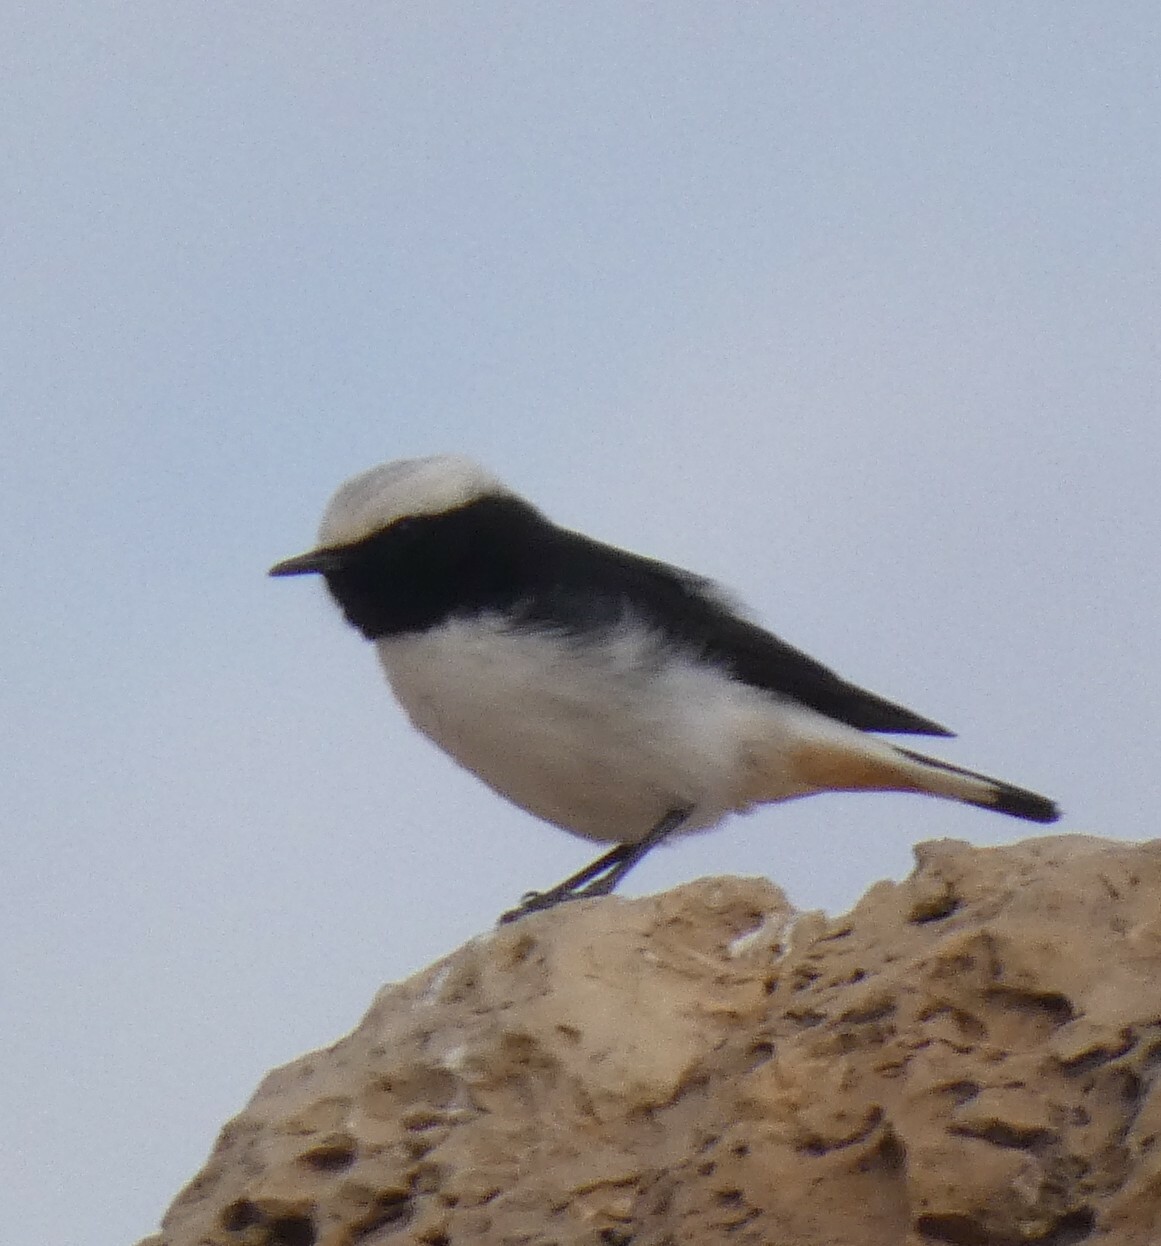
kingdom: Animalia
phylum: Chordata
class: Aves
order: Passeriformes
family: Muscicapidae
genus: Oenanthe
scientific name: Oenanthe lugens
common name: Mourning wheatear
